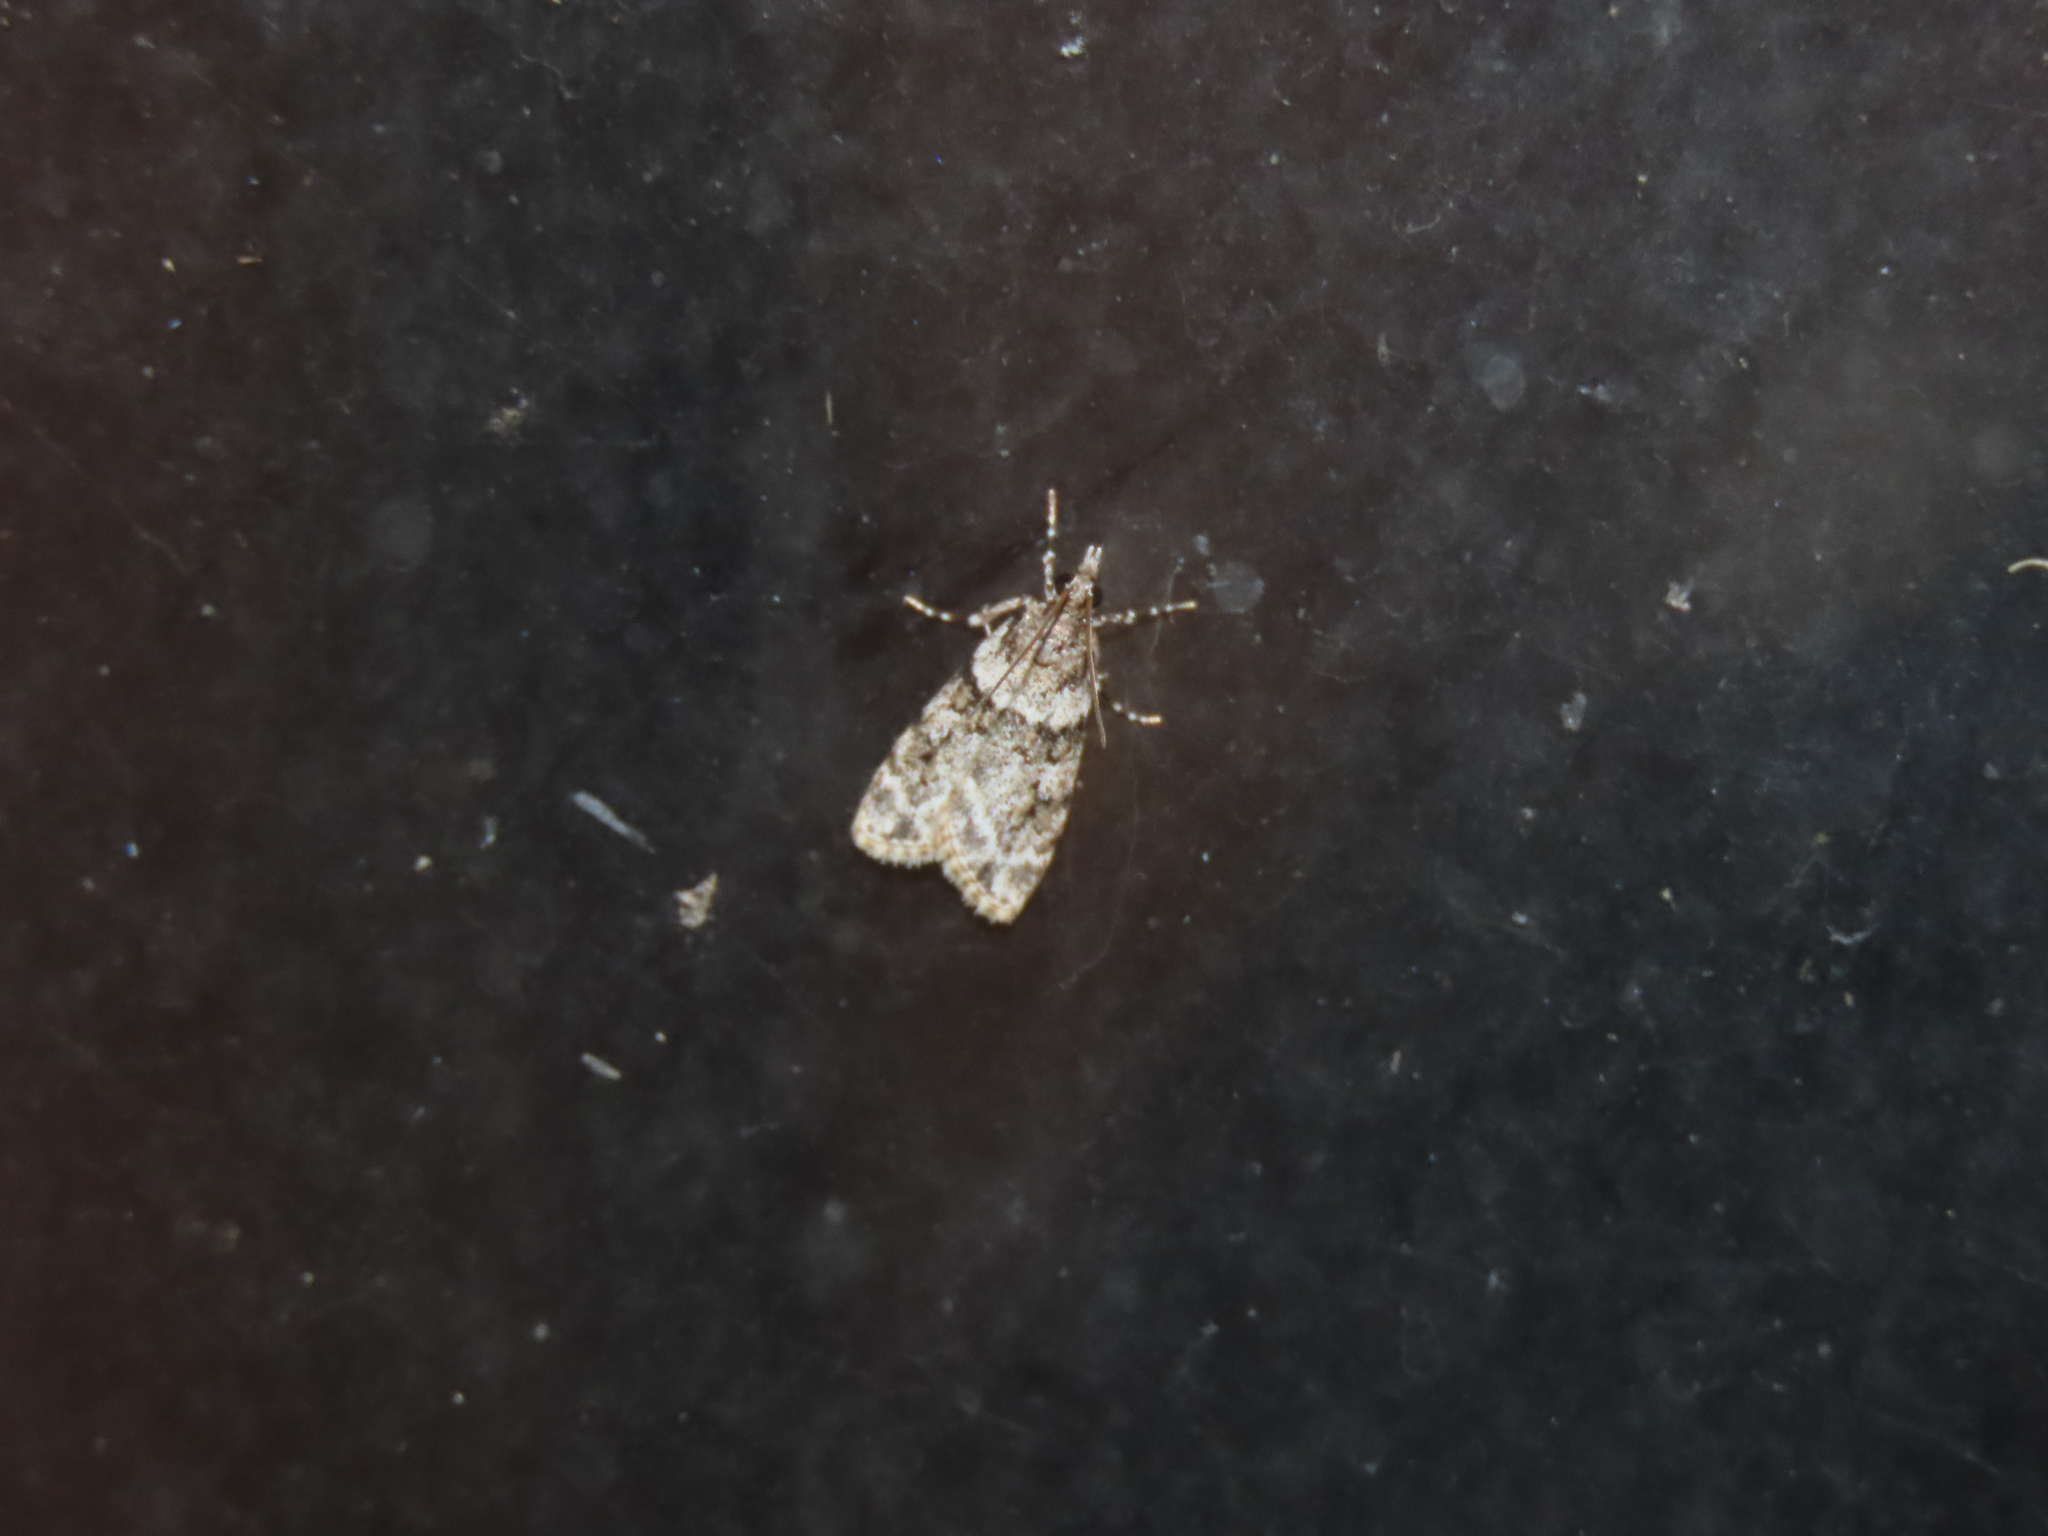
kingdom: Animalia
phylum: Arthropoda
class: Insecta
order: Lepidoptera
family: Crambidae
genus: Scoparia
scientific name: Scoparia biplagialis
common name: Double-striped scoparia moth
